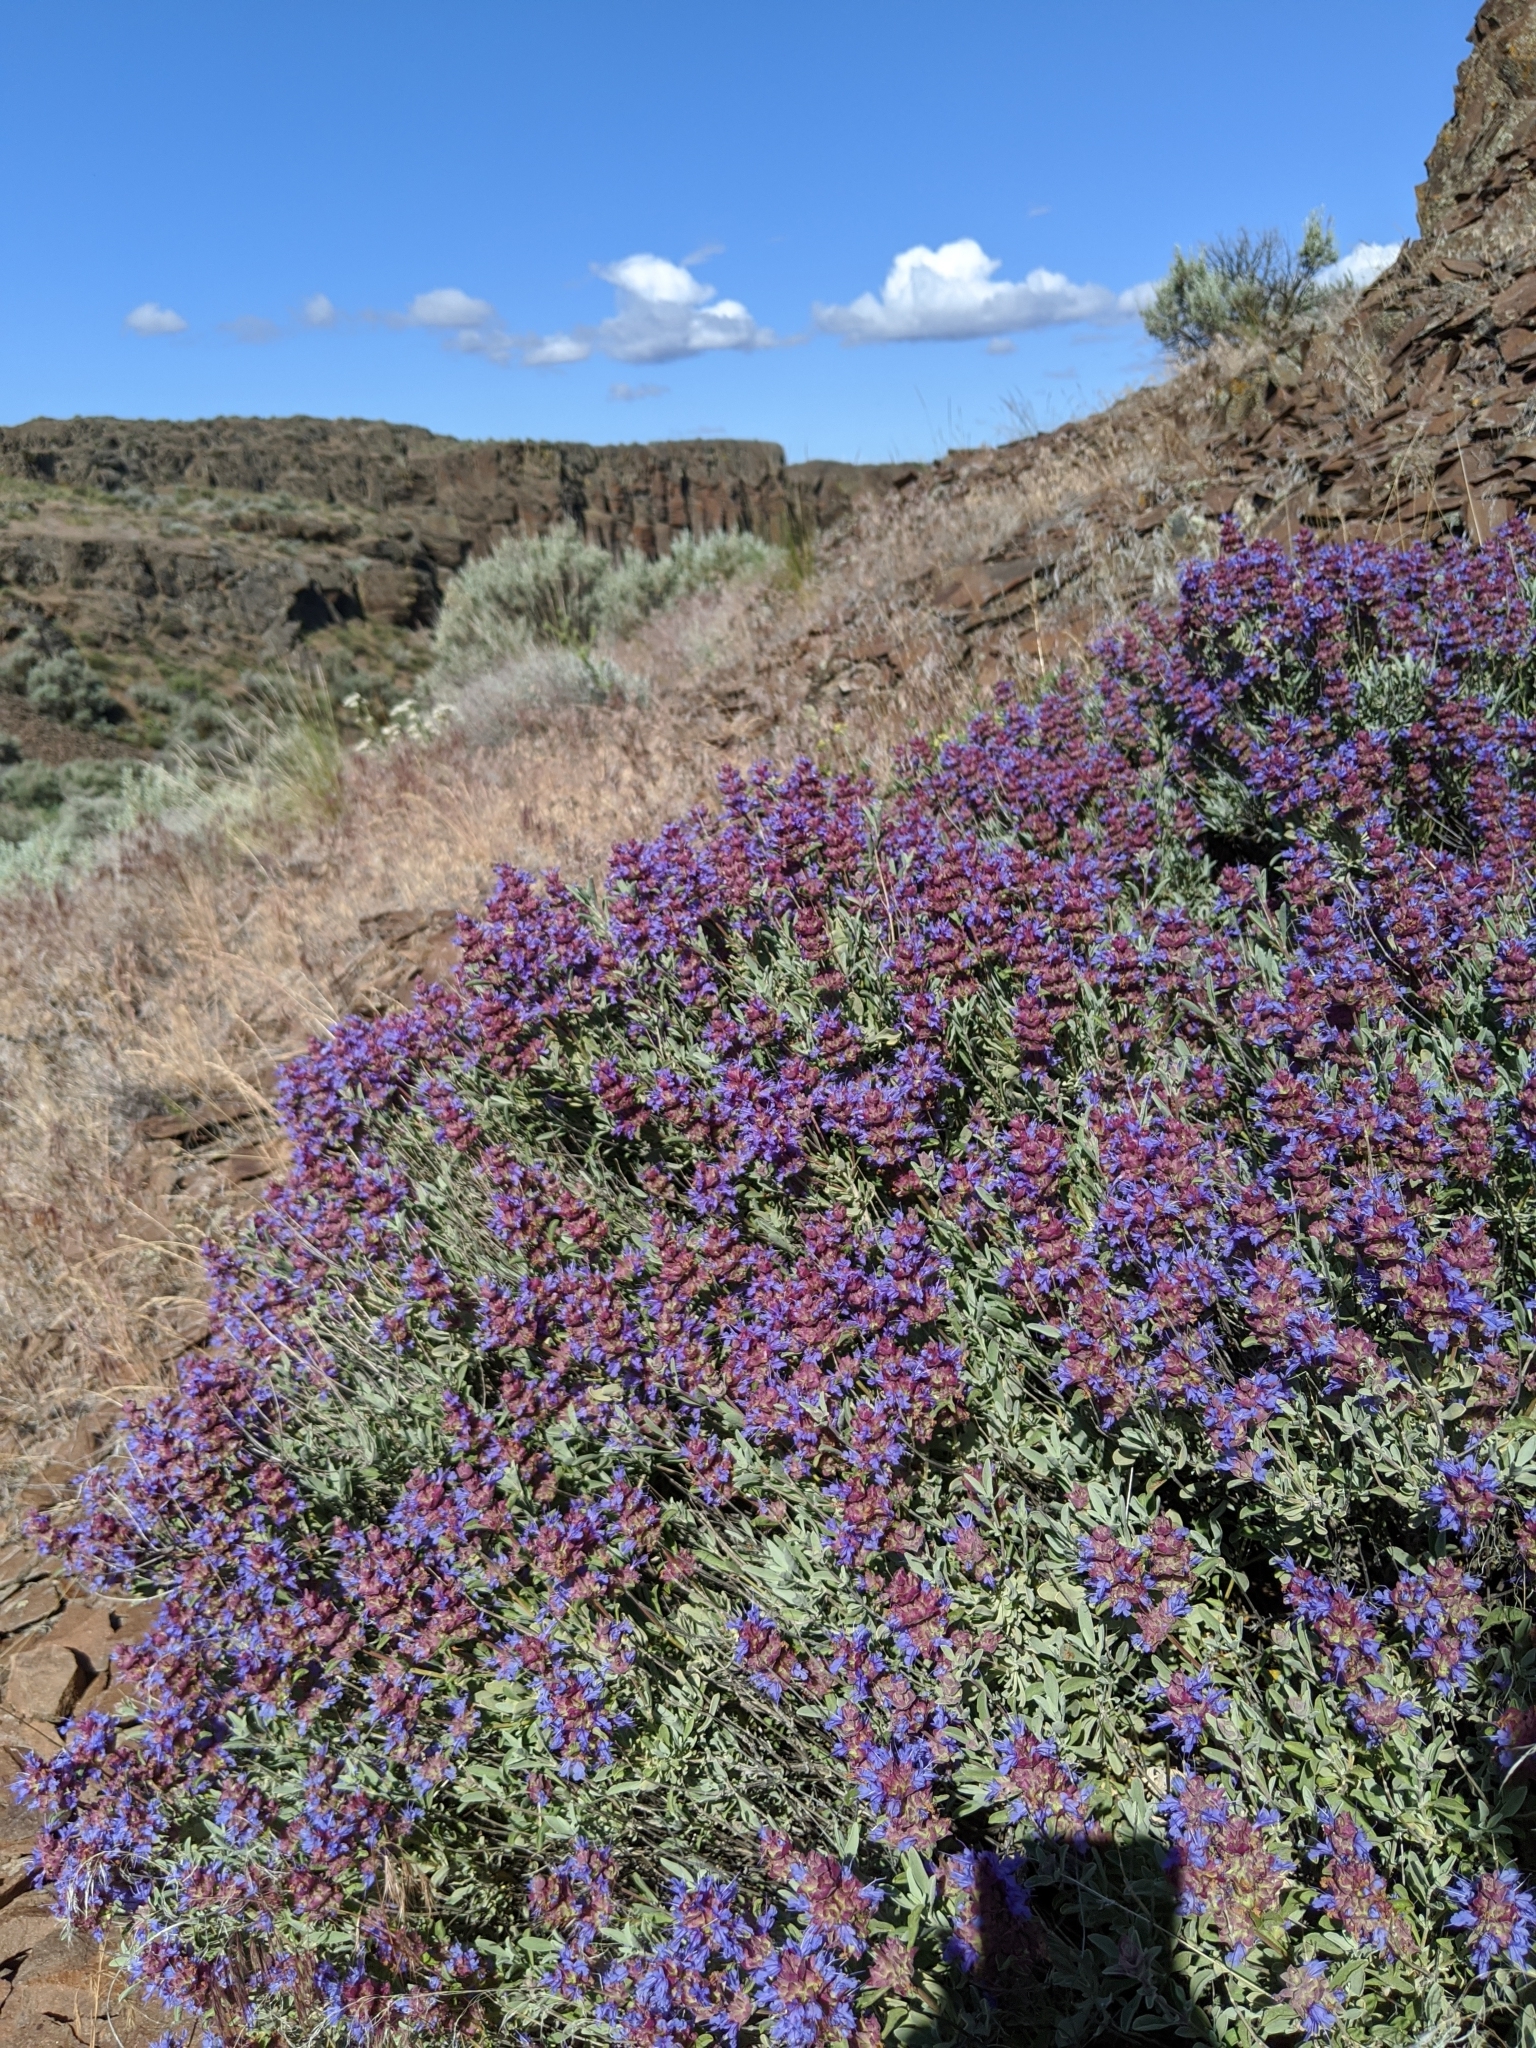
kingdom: Plantae
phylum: Tracheophyta
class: Magnoliopsida
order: Lamiales
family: Lamiaceae
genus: Salvia
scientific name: Salvia dorrii
